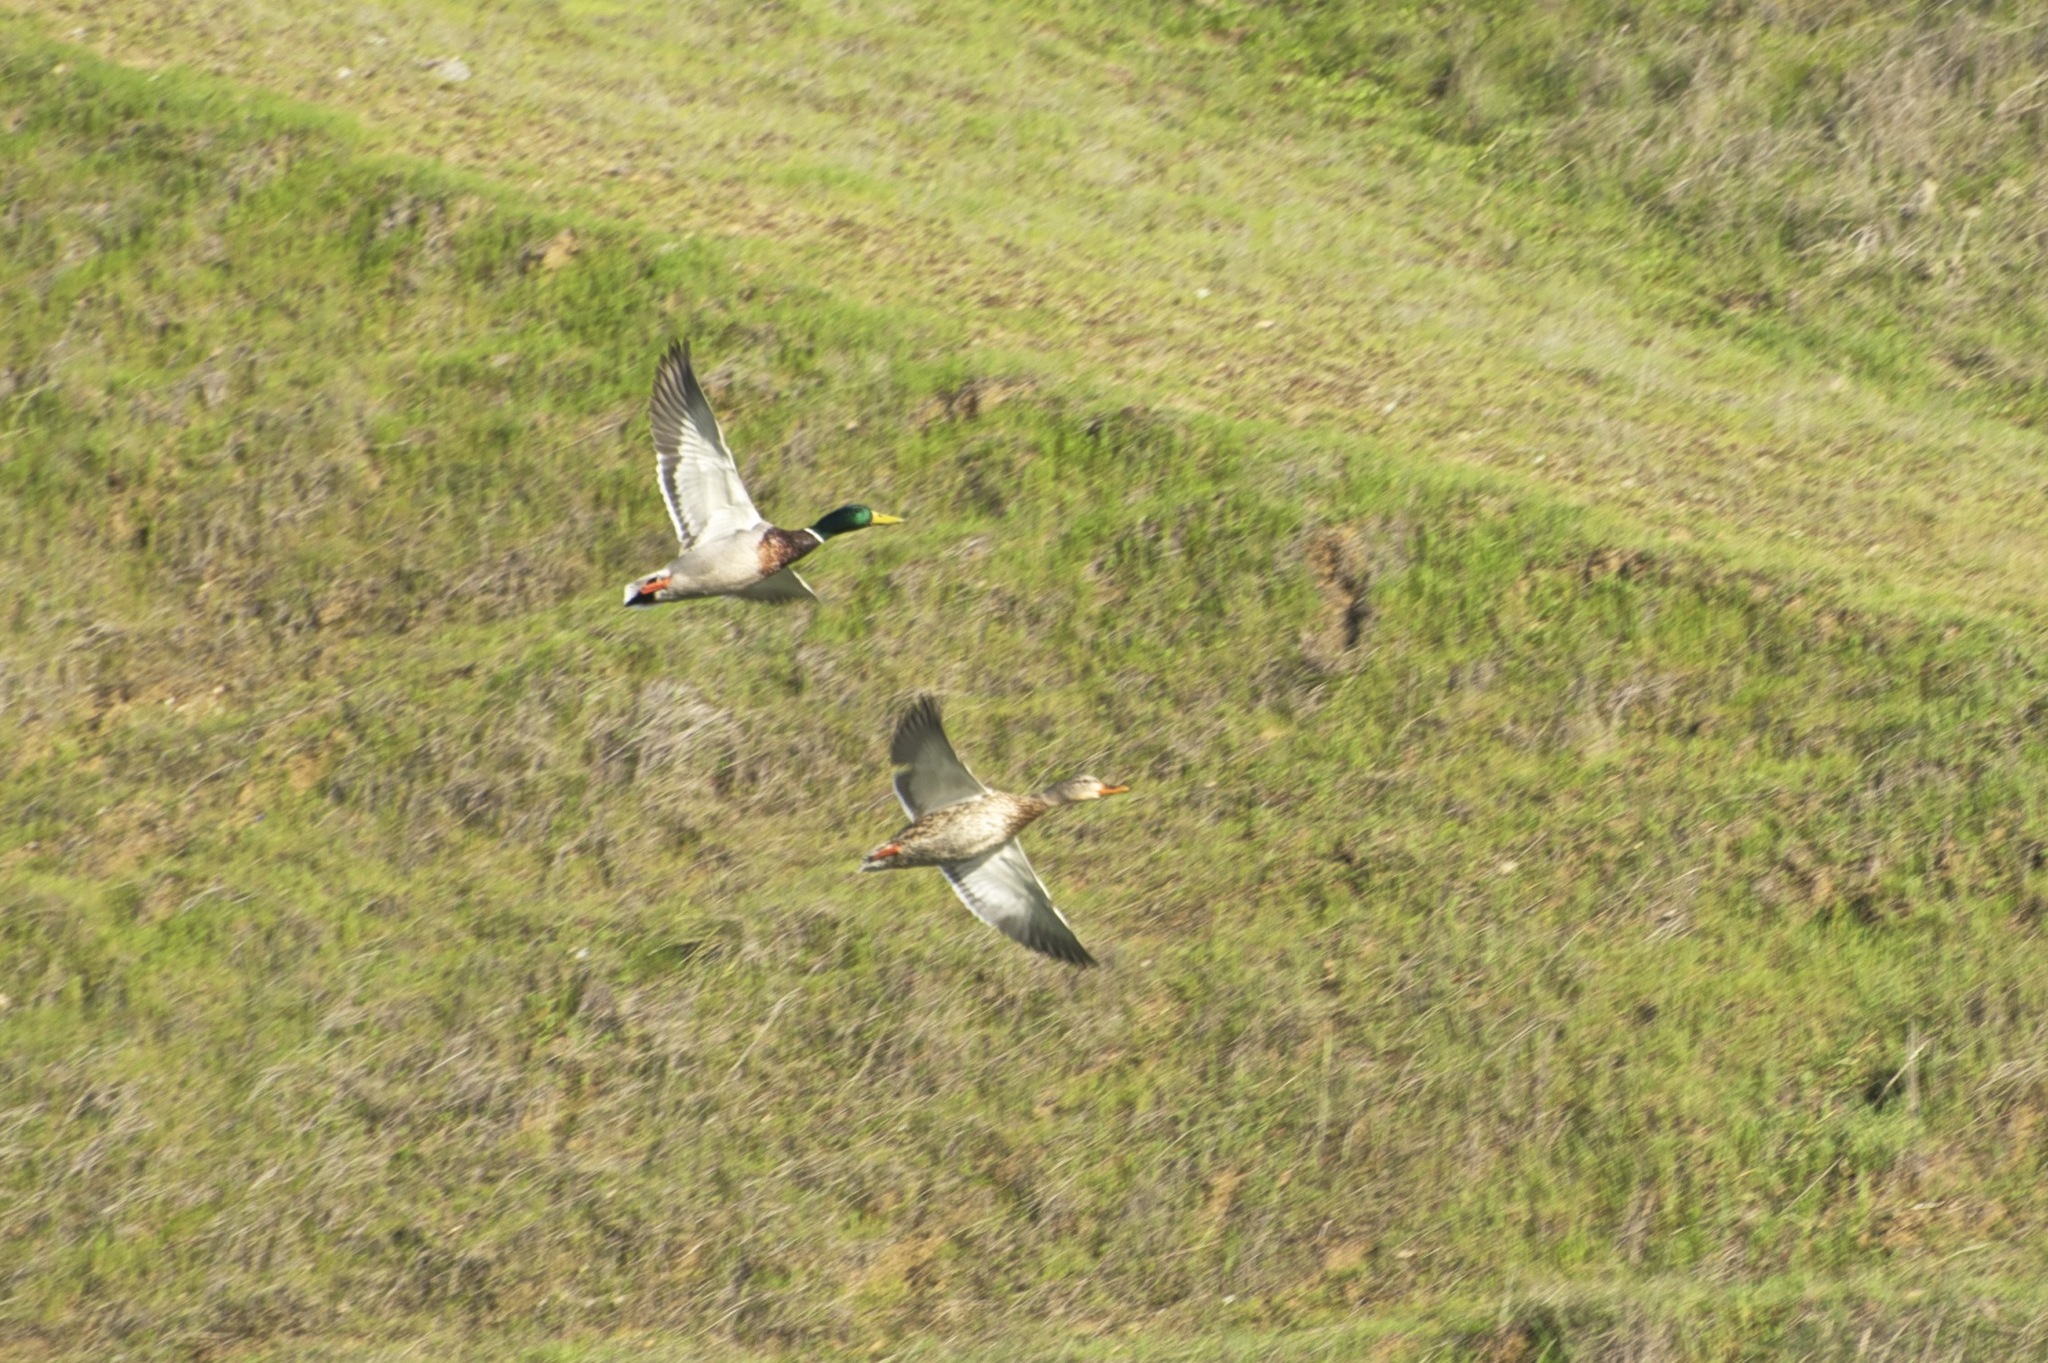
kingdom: Animalia
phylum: Chordata
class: Aves
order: Anseriformes
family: Anatidae
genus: Anas
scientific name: Anas platyrhynchos
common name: Mallard
